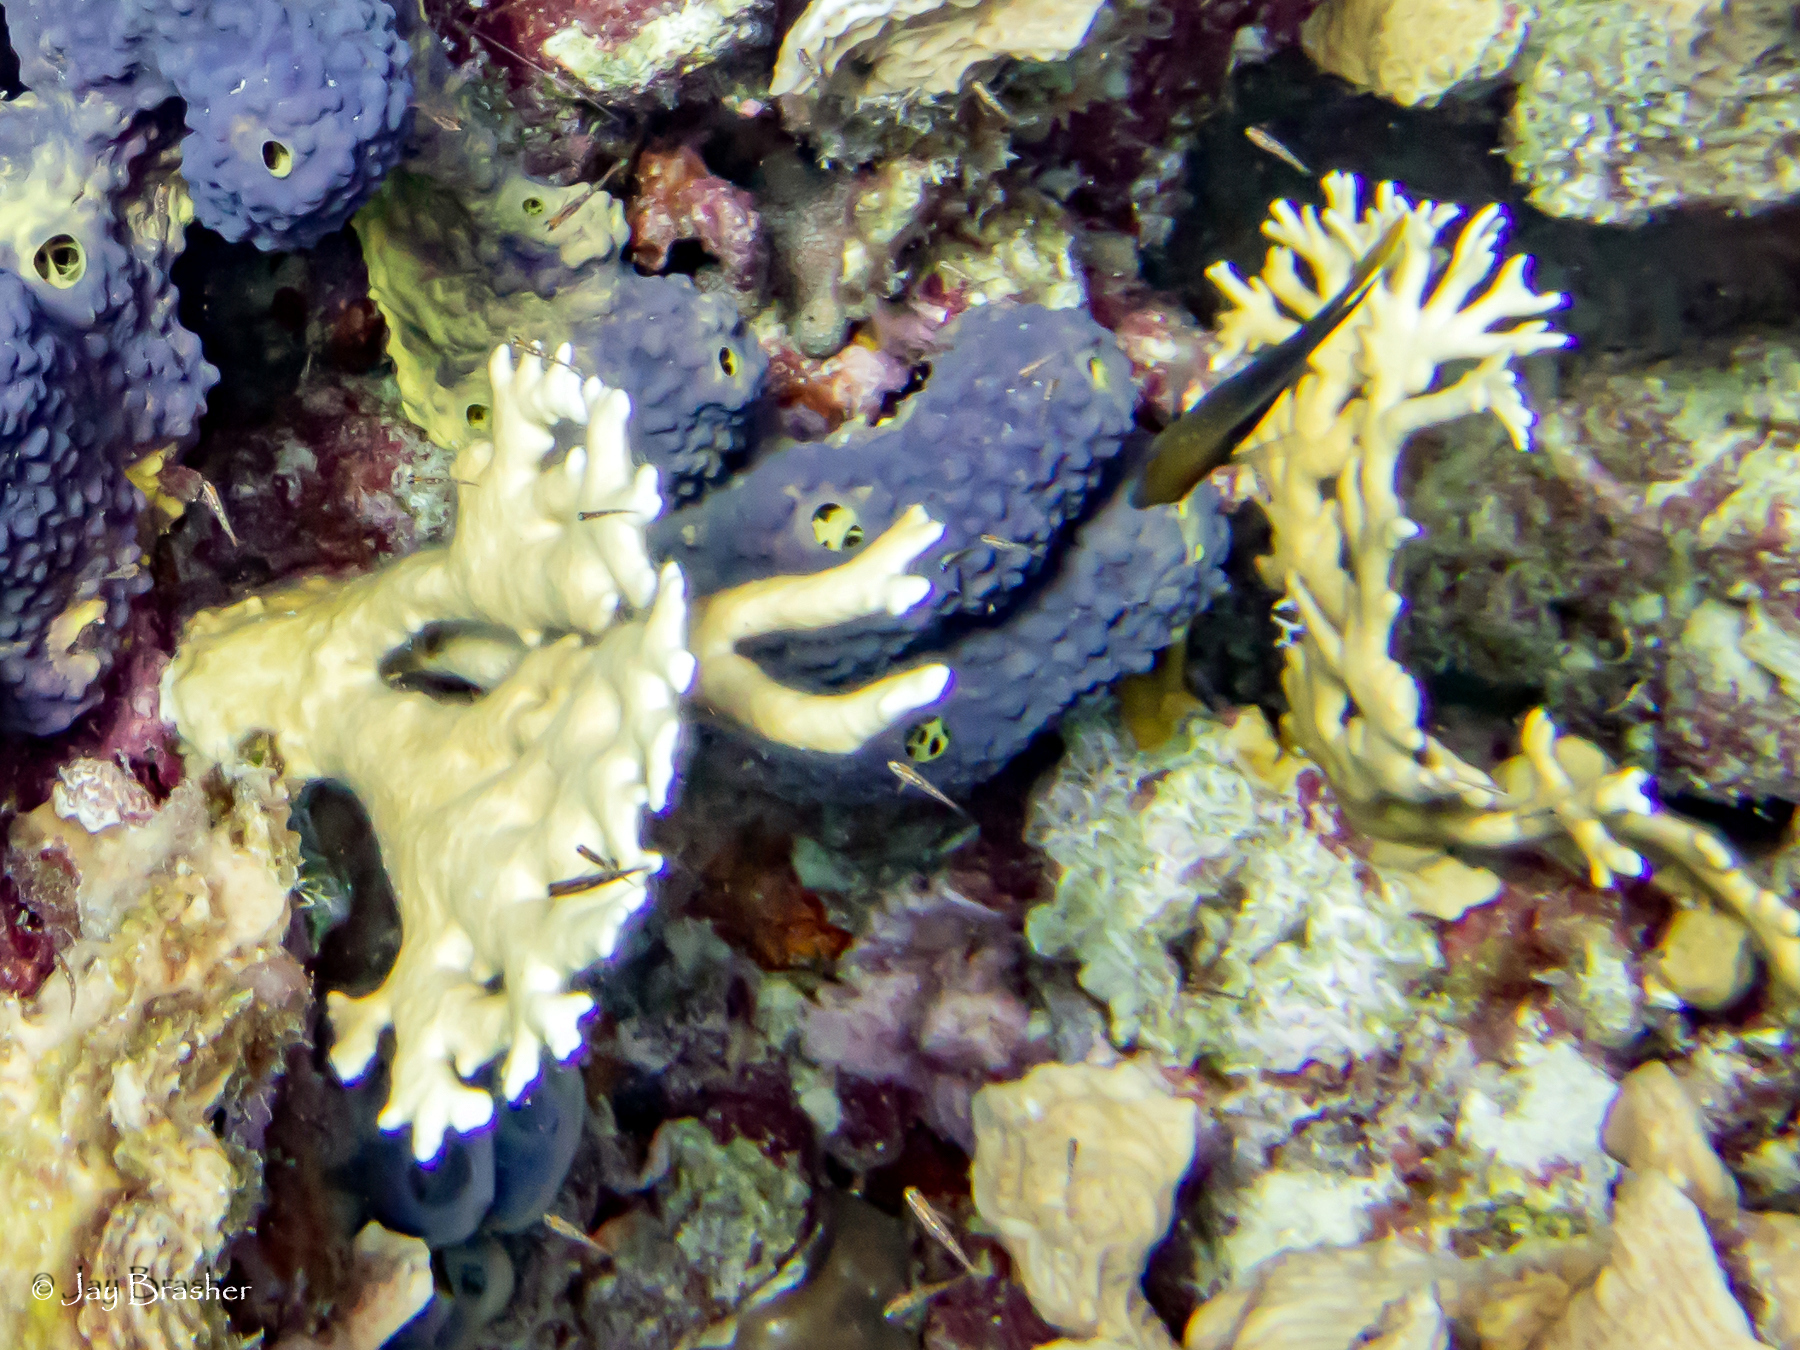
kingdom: Animalia
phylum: Cnidaria
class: Hydrozoa
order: Anthoathecata
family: Milleporidae
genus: Millepora
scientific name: Millepora alcicornis
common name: Branching fire coral
